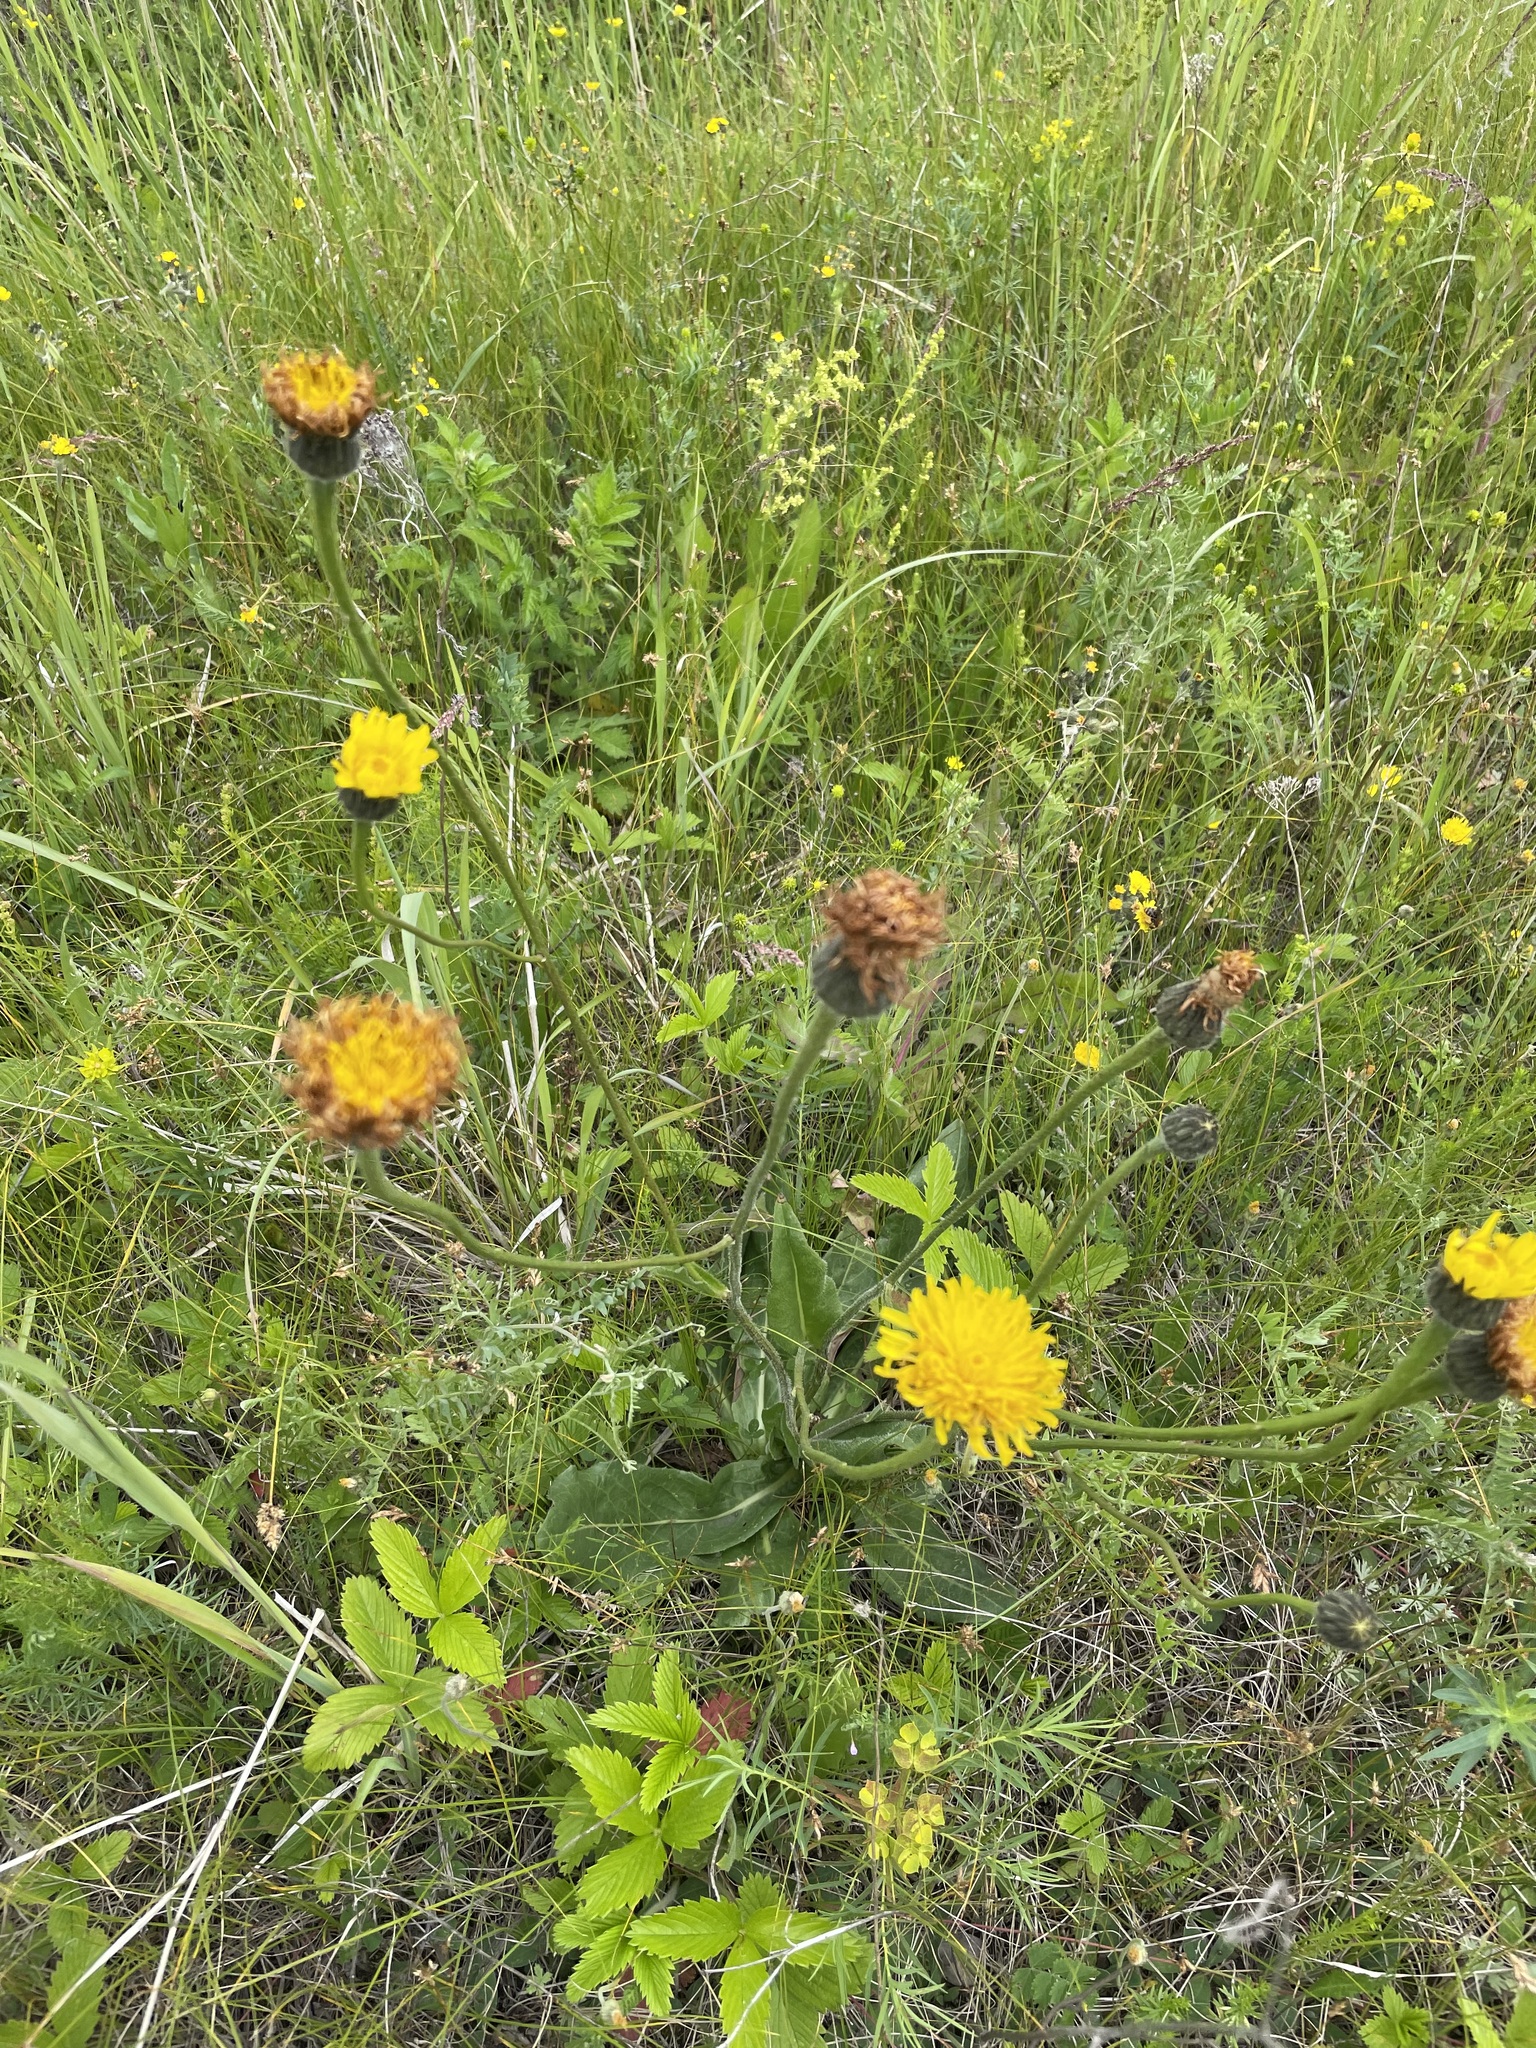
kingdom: Plantae
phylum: Tracheophyta
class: Magnoliopsida
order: Asterales
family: Asteraceae
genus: Trommsdorffia
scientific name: Trommsdorffia maculata
